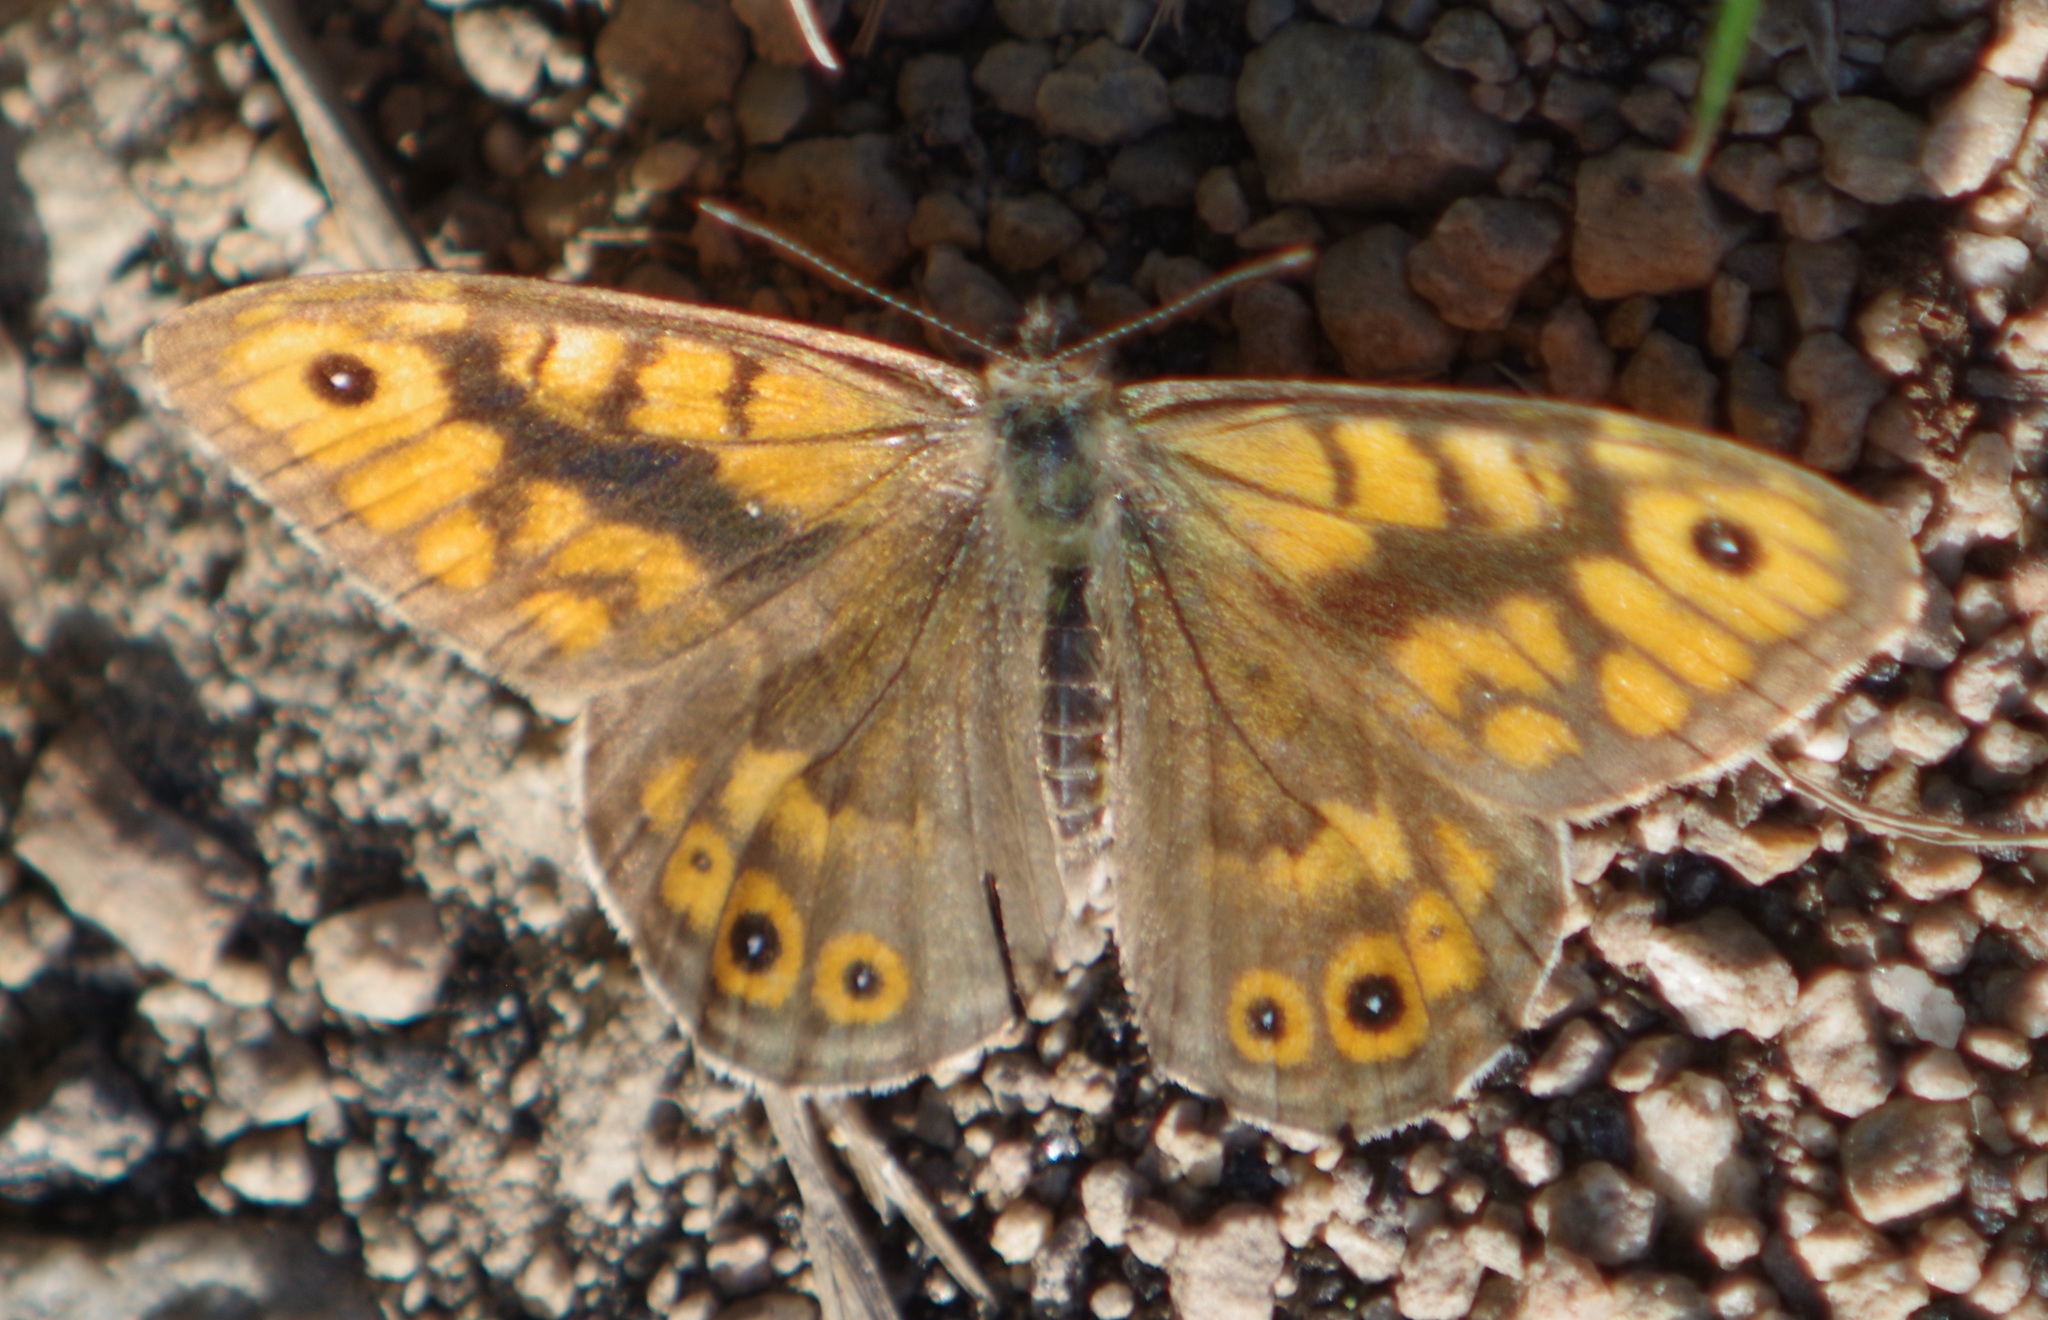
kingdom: Animalia
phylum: Arthropoda
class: Insecta
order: Lepidoptera
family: Nymphalidae
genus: Pararge
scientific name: Pararge Lasiommata megera
